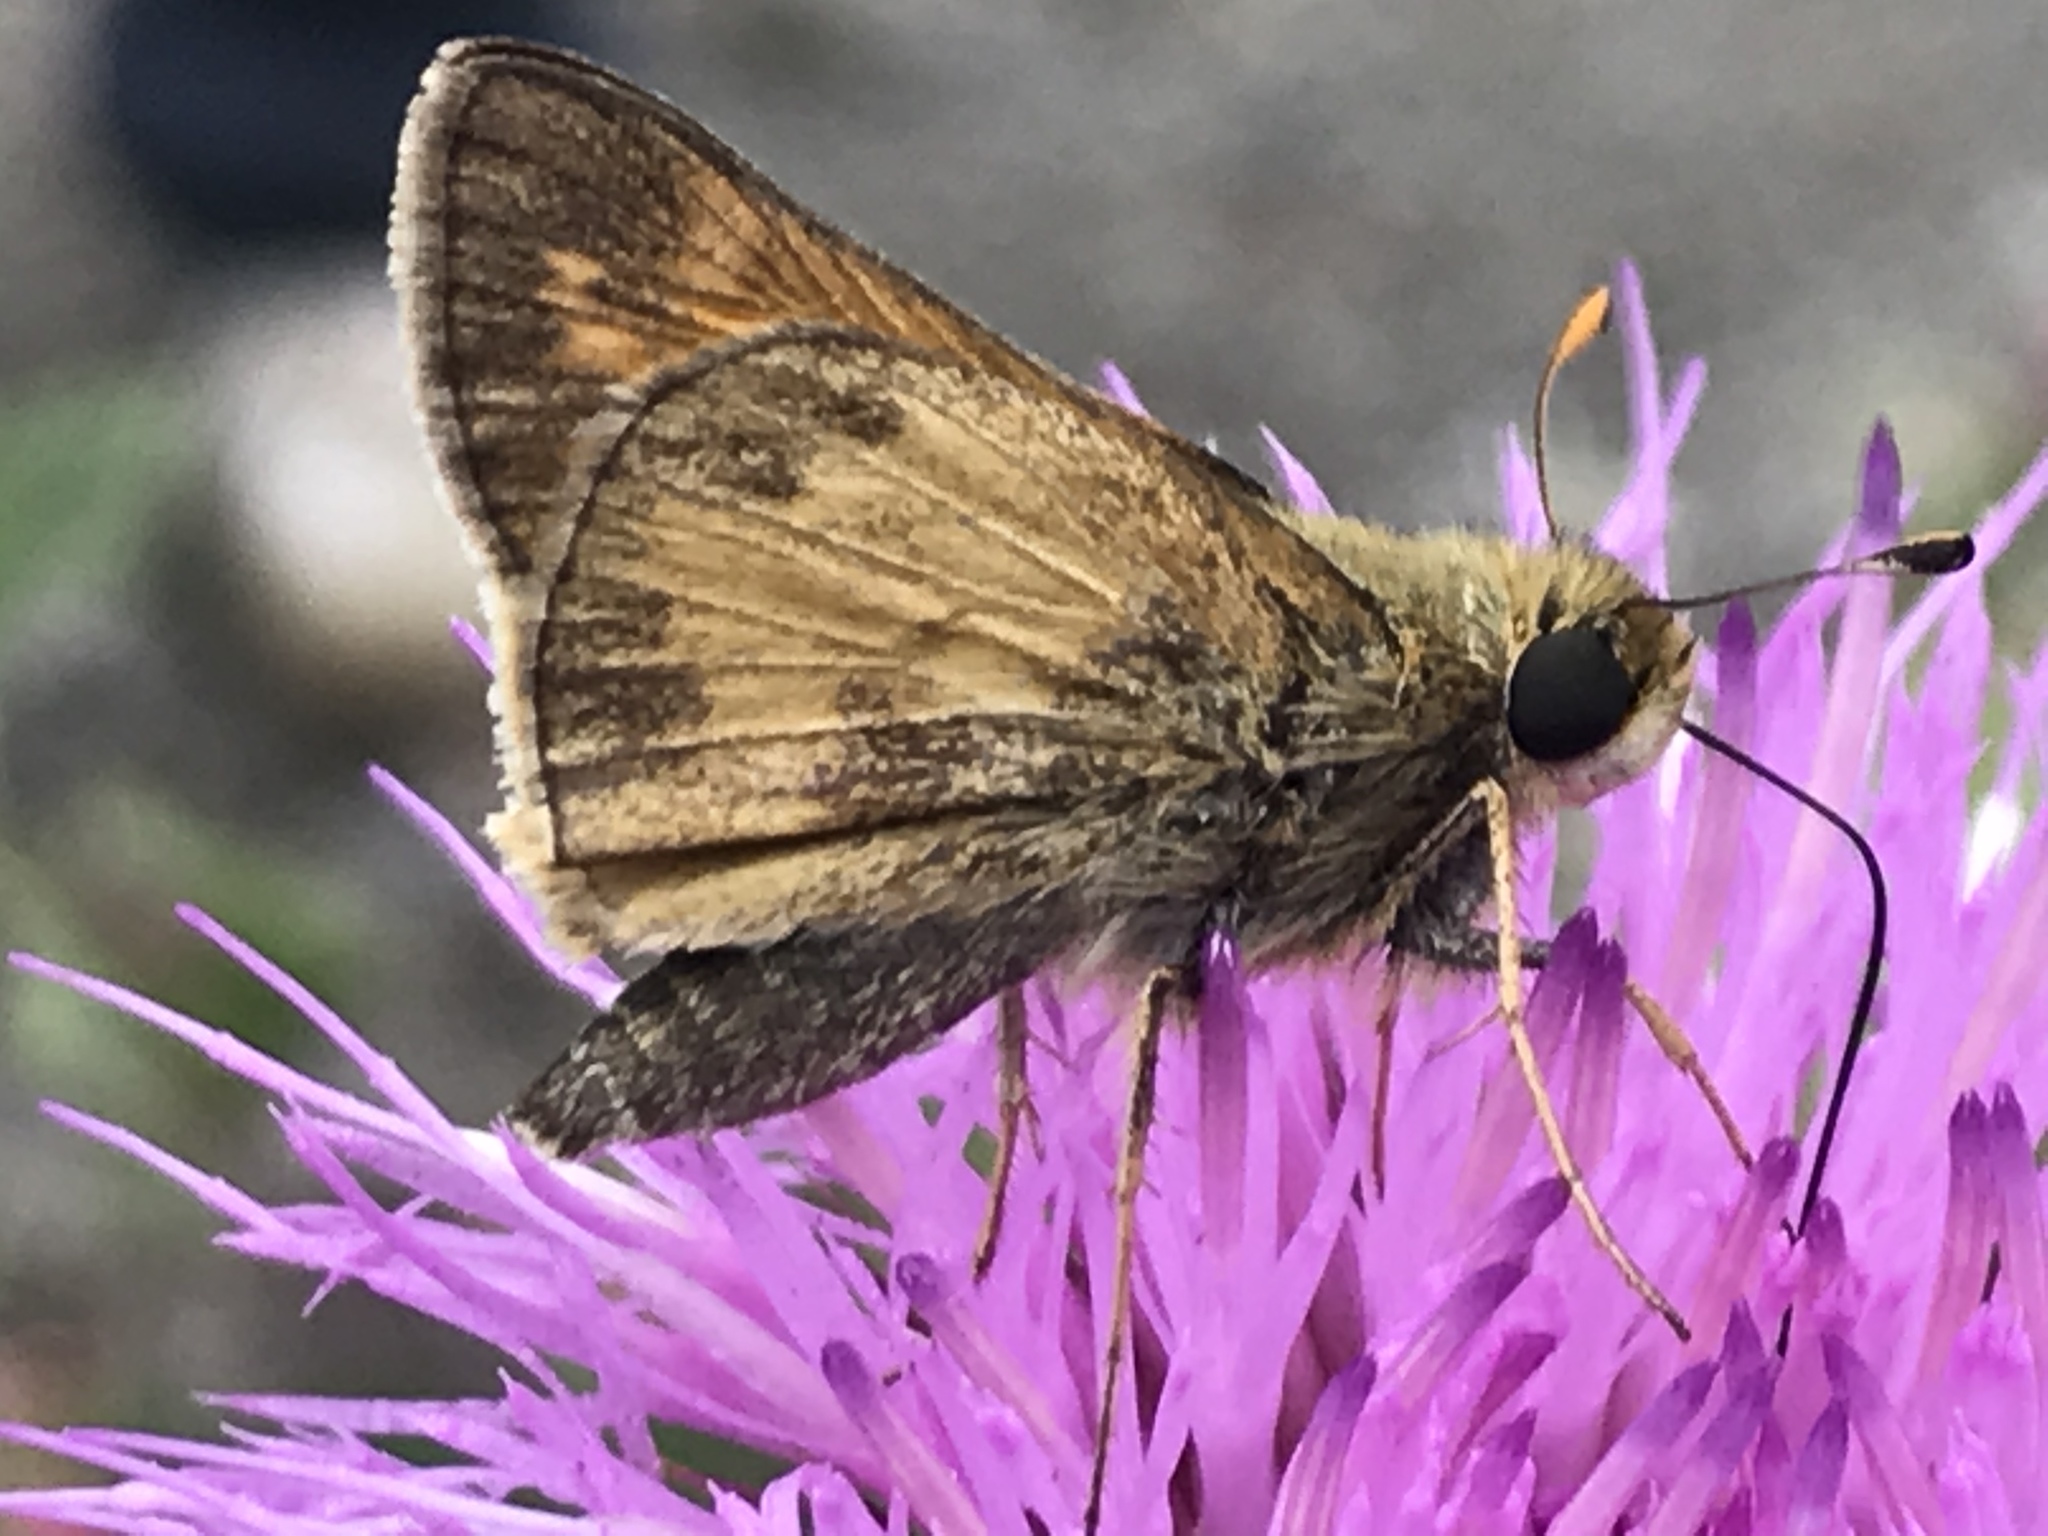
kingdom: Animalia
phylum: Arthropoda
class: Insecta
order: Lepidoptera
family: Hesperiidae
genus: Atalopedes
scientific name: Atalopedes
